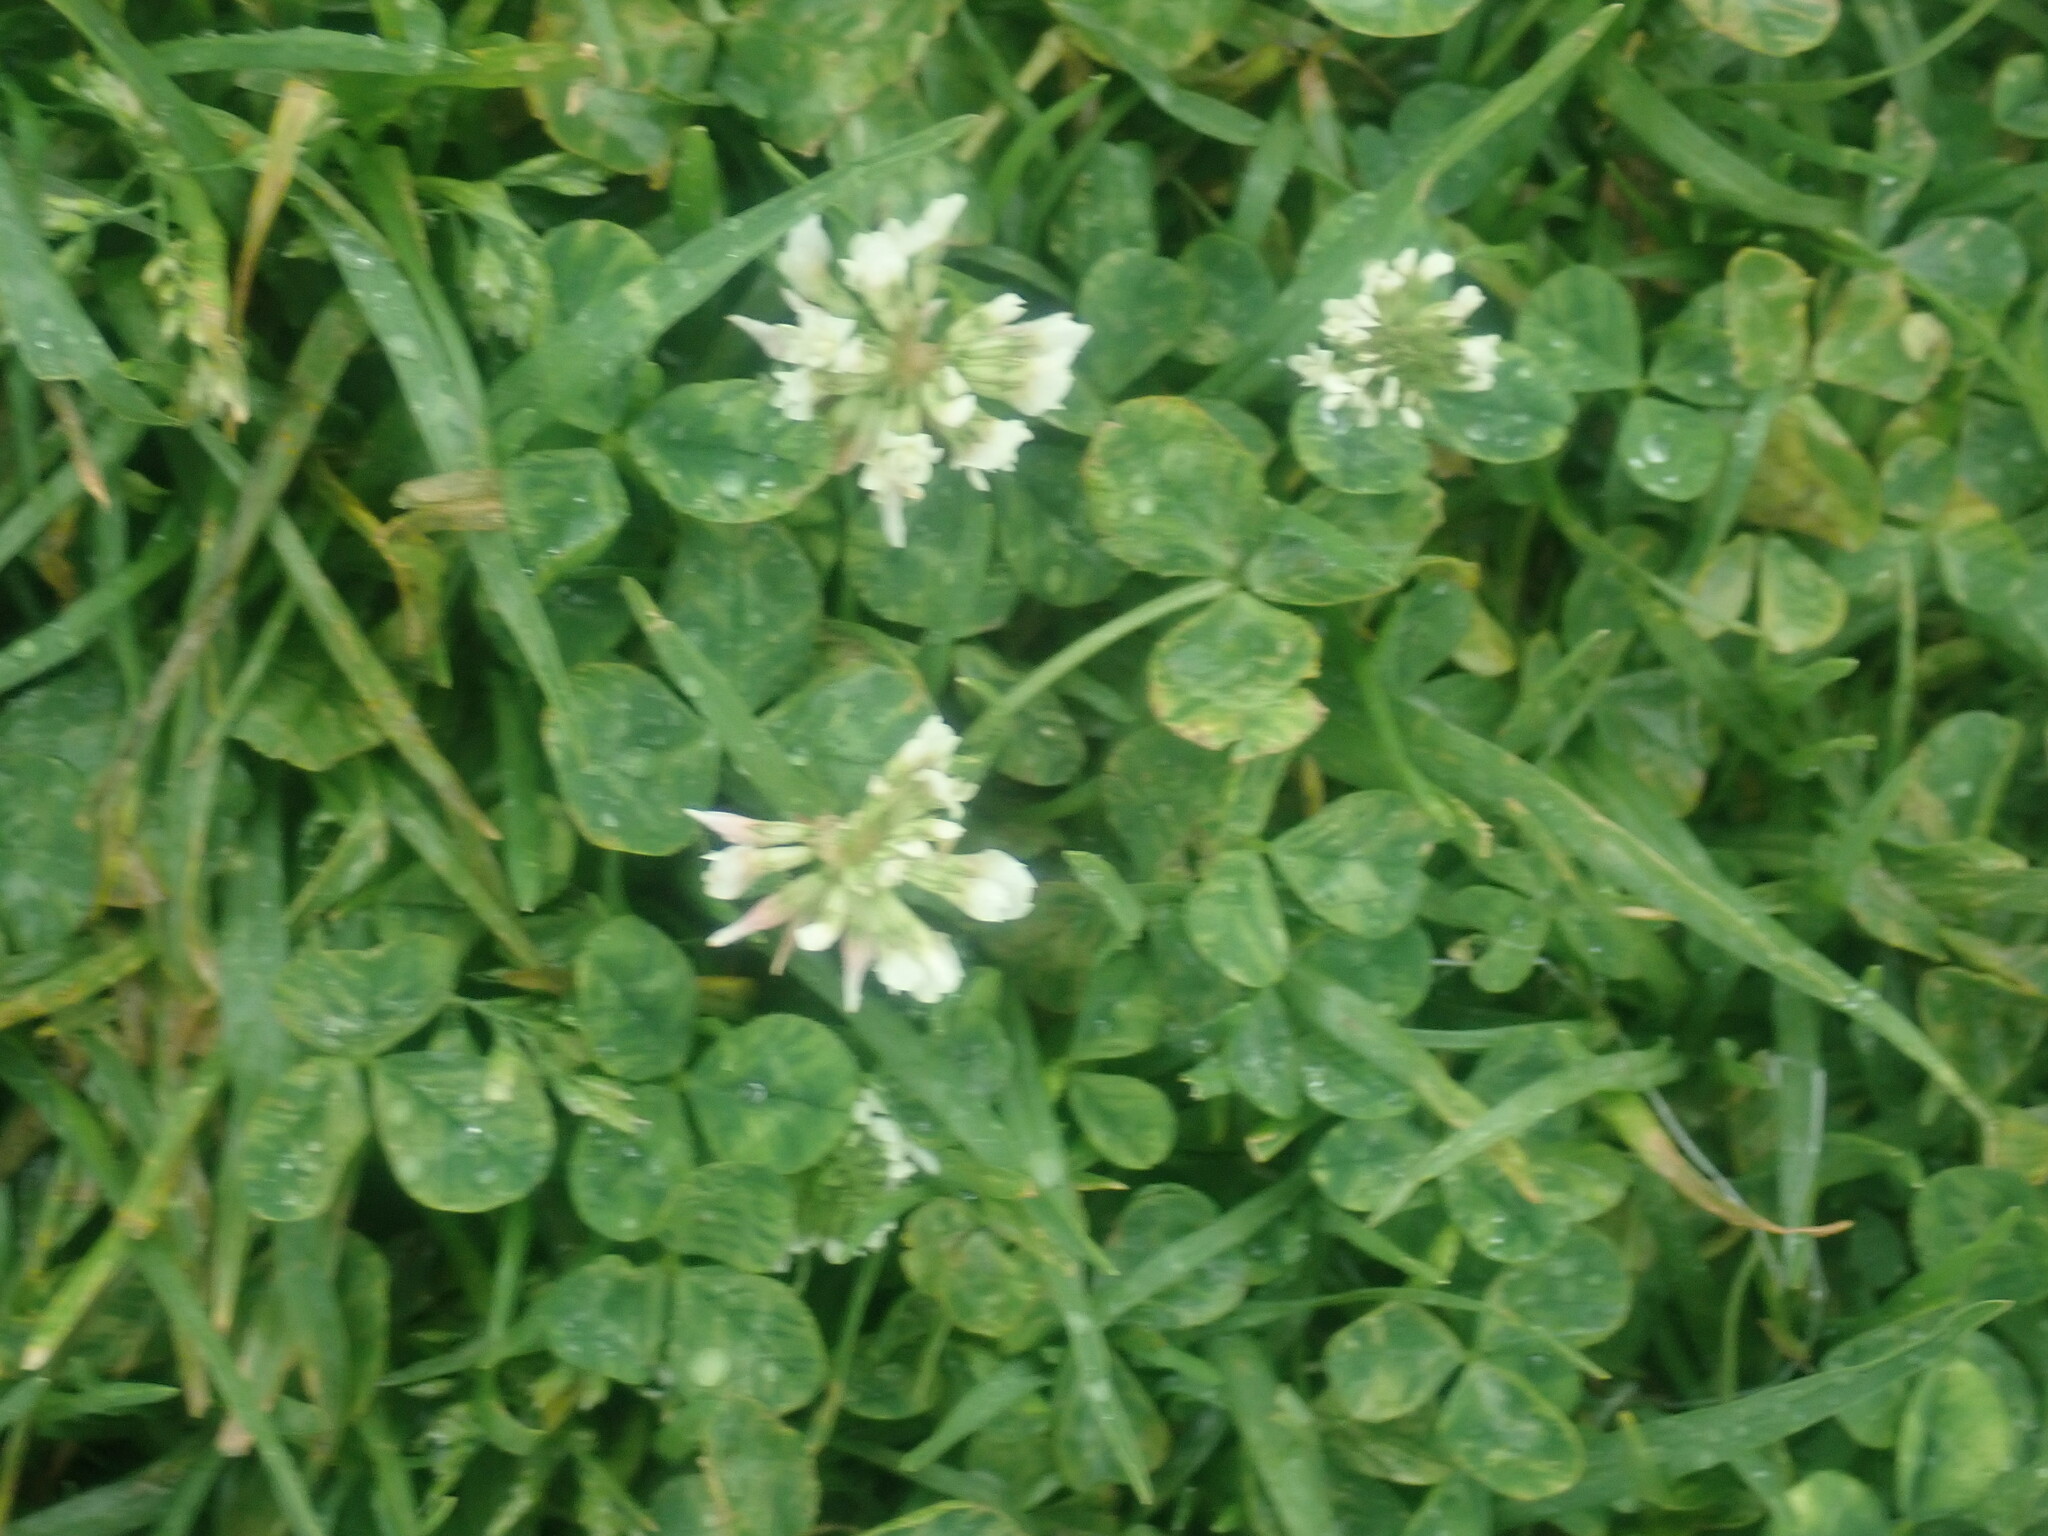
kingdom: Plantae
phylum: Tracheophyta
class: Magnoliopsida
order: Fabales
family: Fabaceae
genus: Trifolium
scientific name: Trifolium repens
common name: White clover
